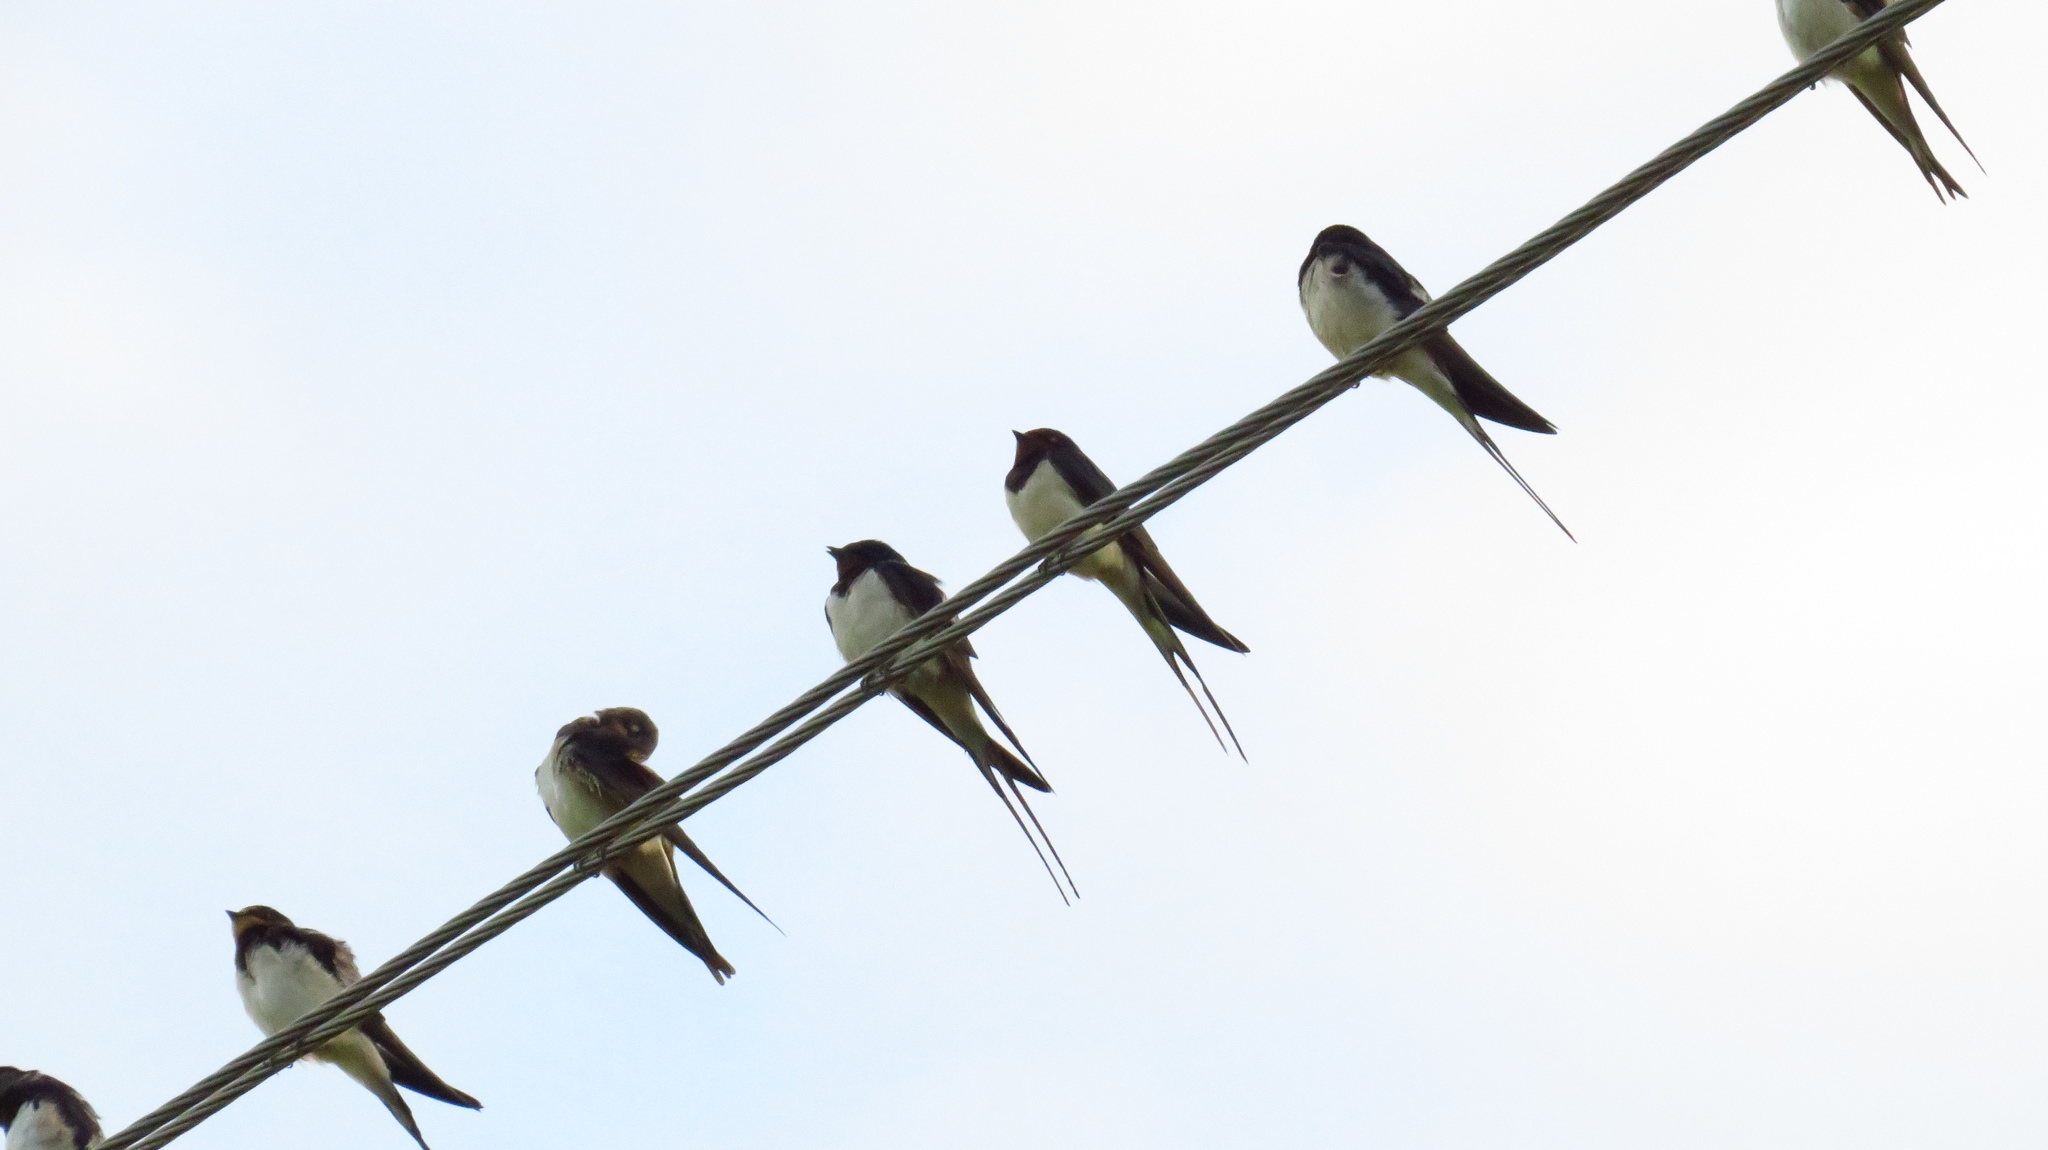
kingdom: Animalia
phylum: Chordata
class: Aves
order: Passeriformes
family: Hirundinidae
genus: Hirundo
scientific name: Hirundo rustica
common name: Barn swallow
